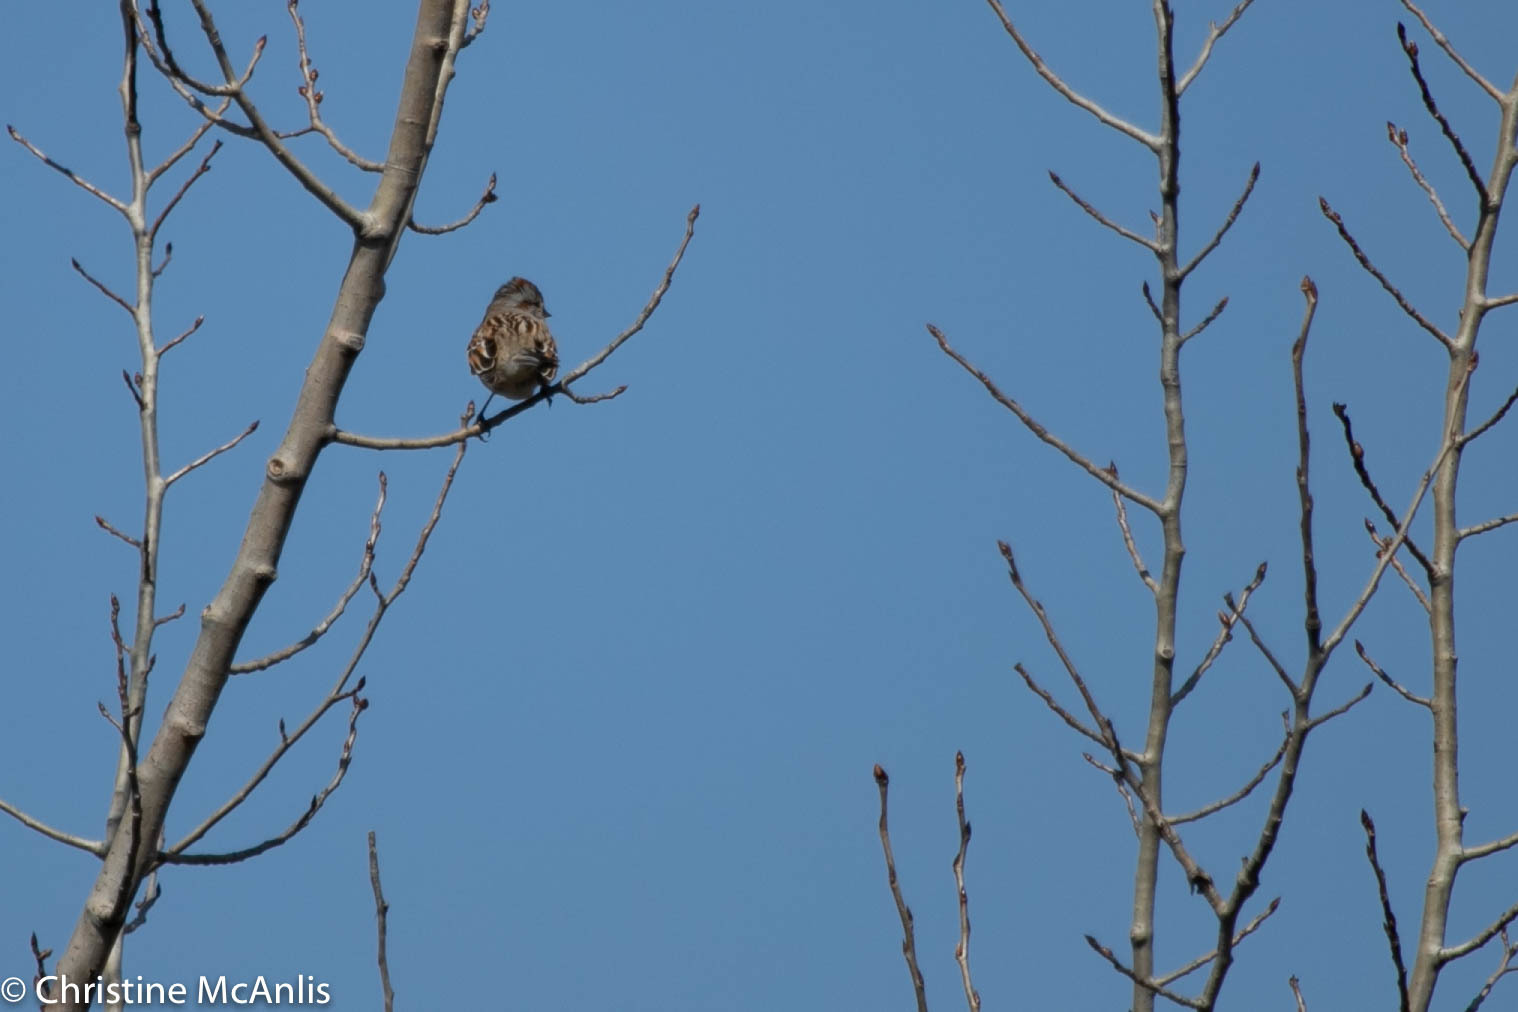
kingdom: Animalia
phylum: Chordata
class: Aves
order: Passeriformes
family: Passerellidae
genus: Spizelloides
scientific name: Spizelloides arborea
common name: American tree sparrow
